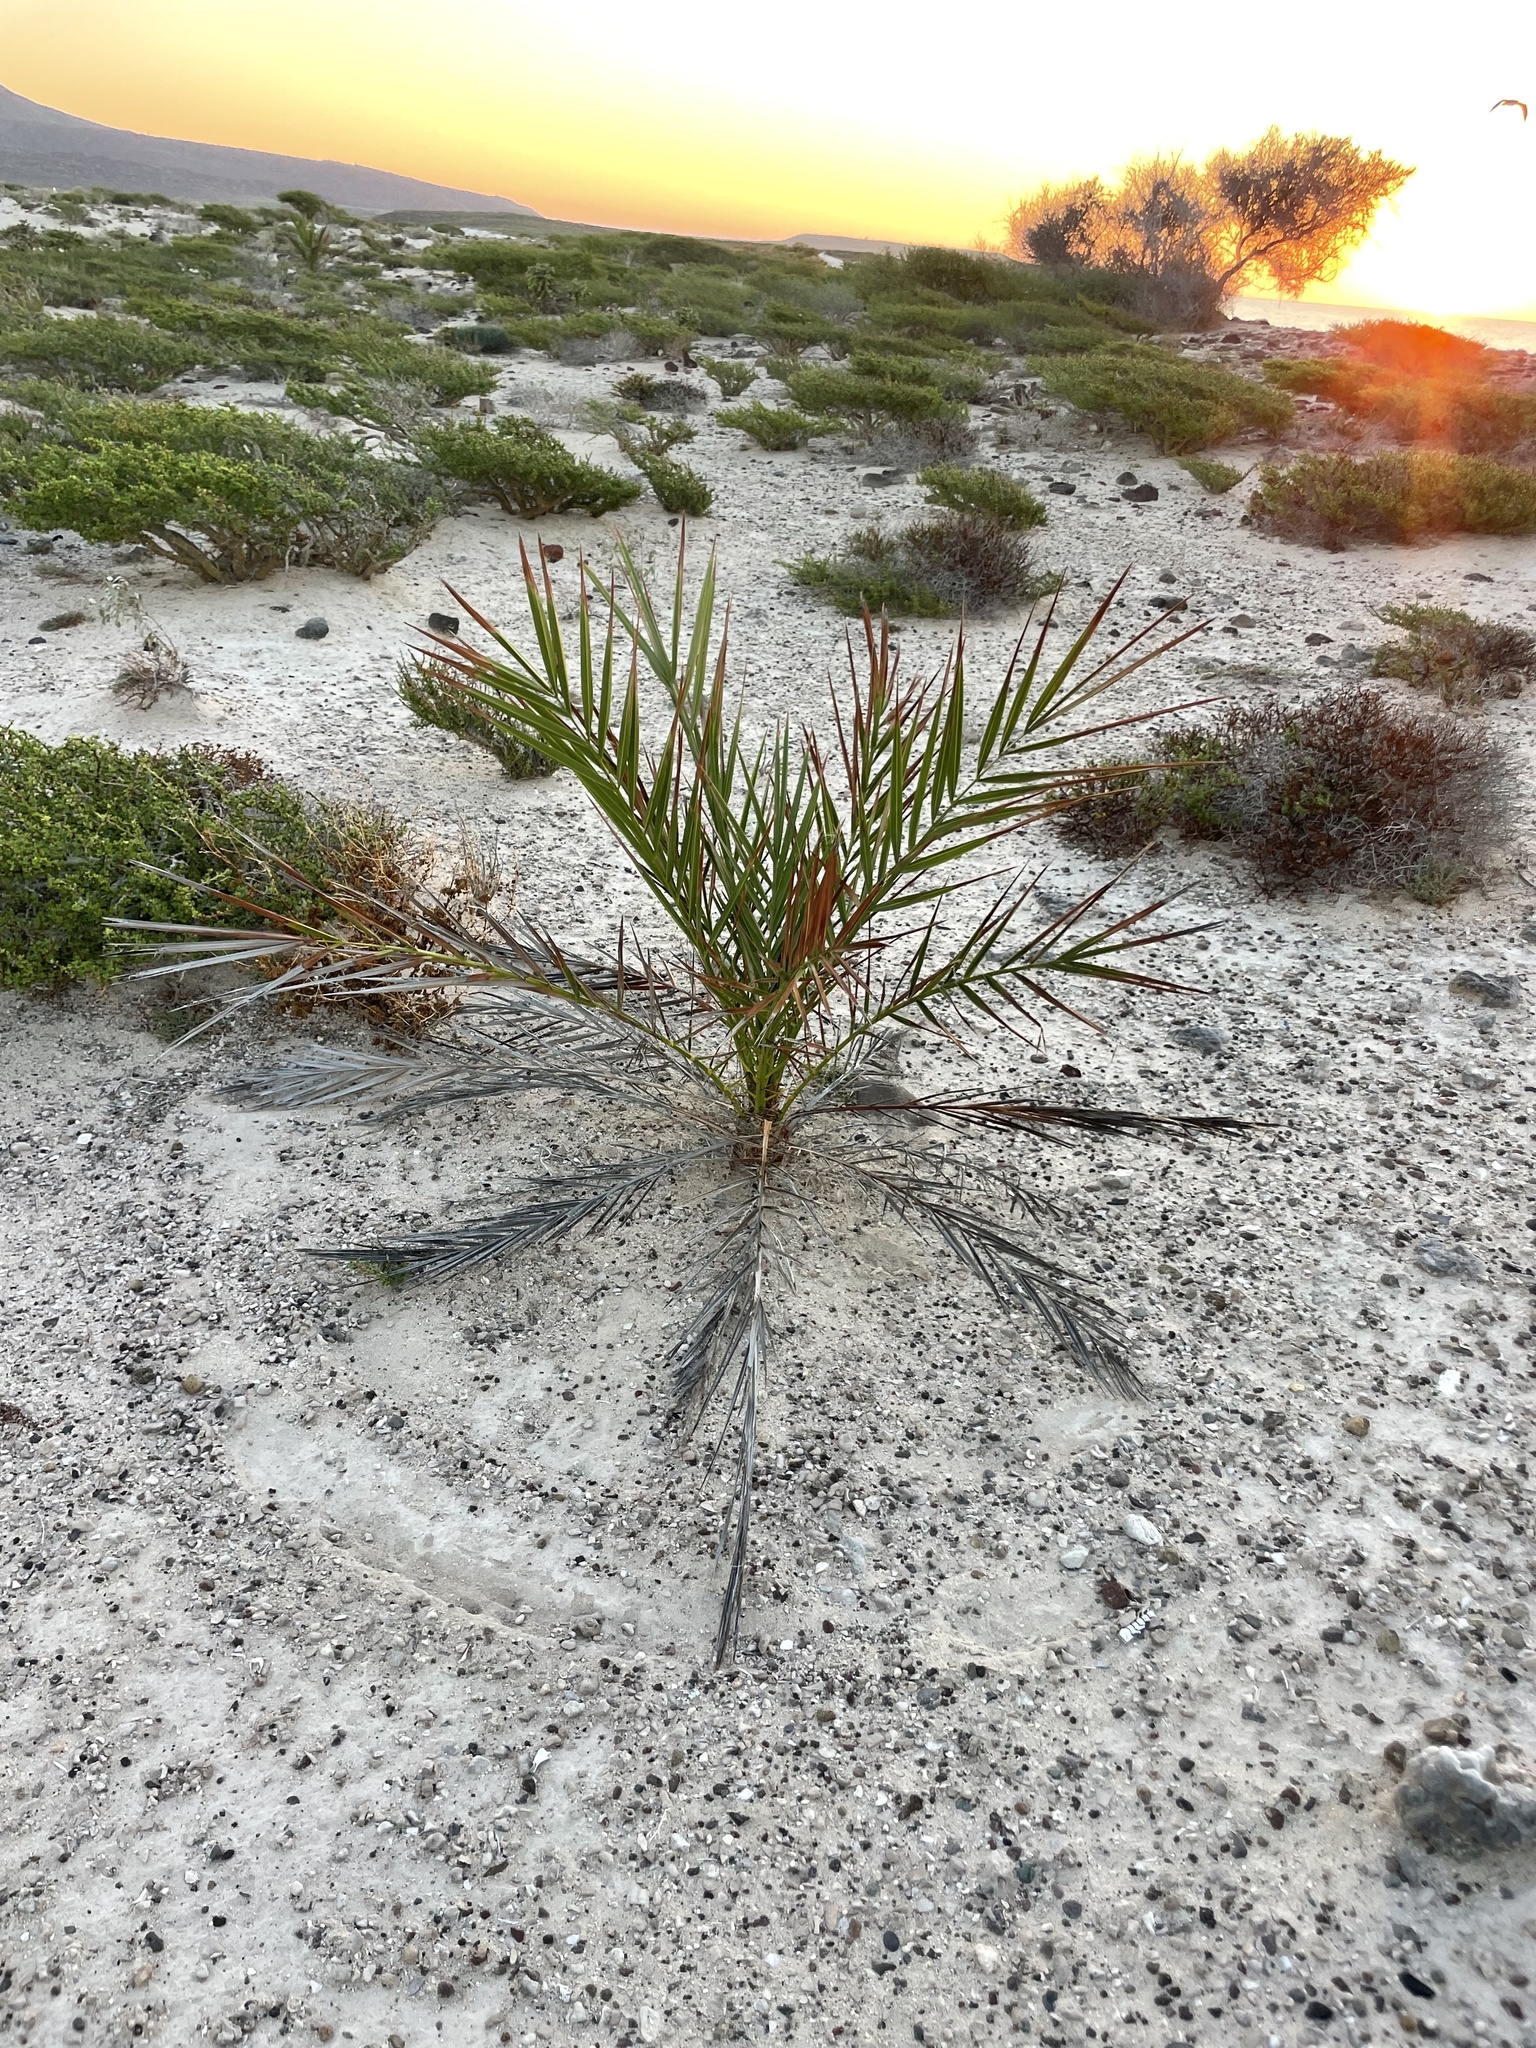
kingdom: Plantae
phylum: Tracheophyta
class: Liliopsida
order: Arecales
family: Arecaceae
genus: Phoenix
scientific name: Phoenix dactylifera
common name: Date palm
